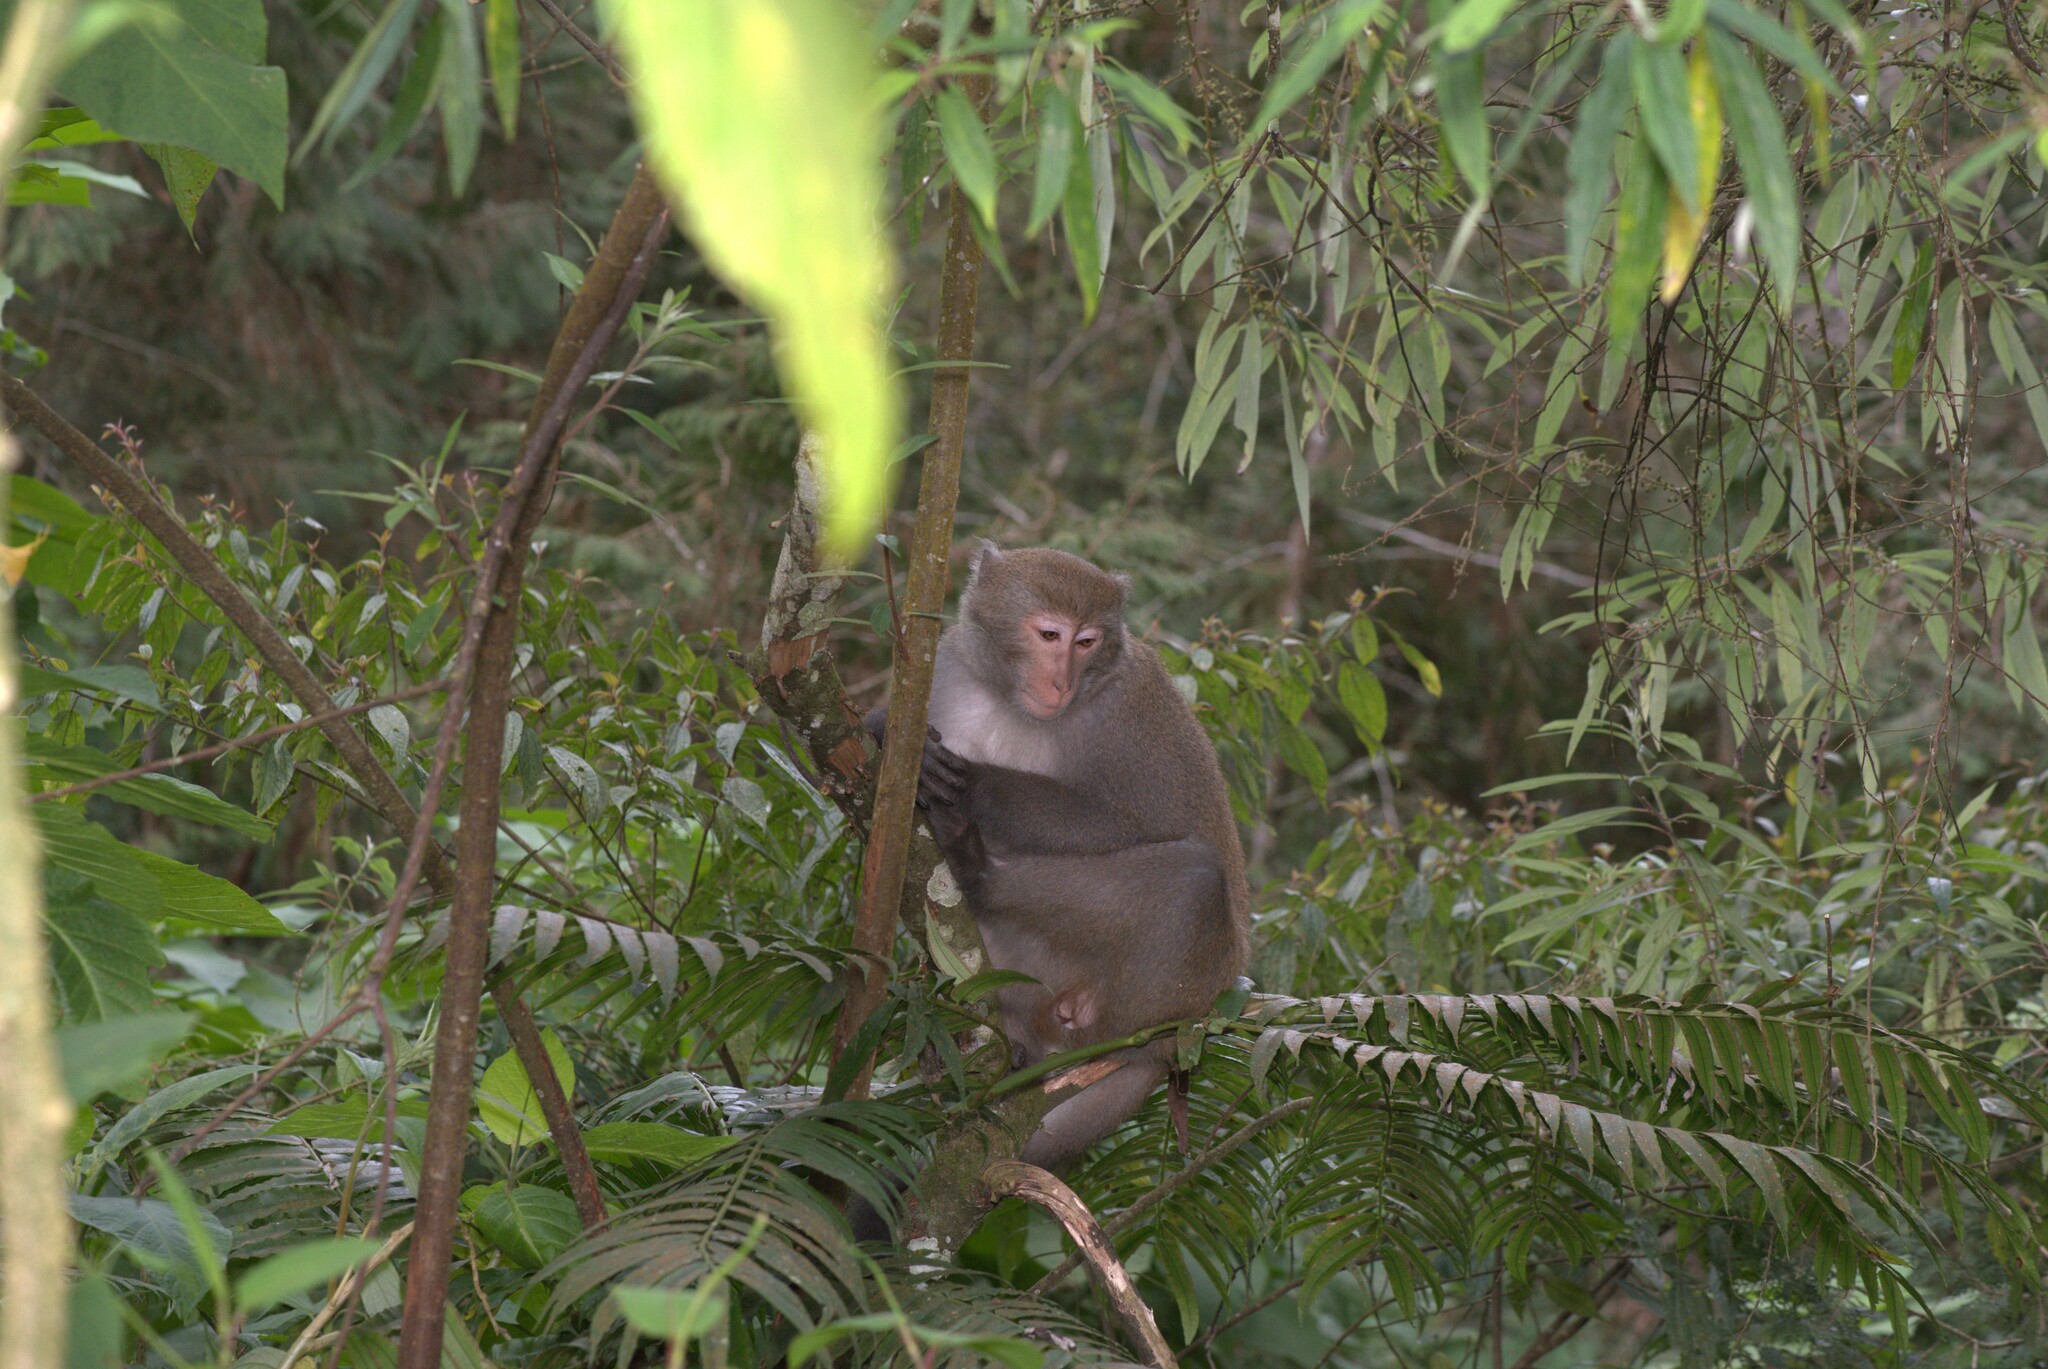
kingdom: Animalia
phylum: Chordata
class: Mammalia
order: Primates
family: Cercopithecidae
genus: Macaca
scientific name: Macaca cyclopis
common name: Formosan rock macaque
